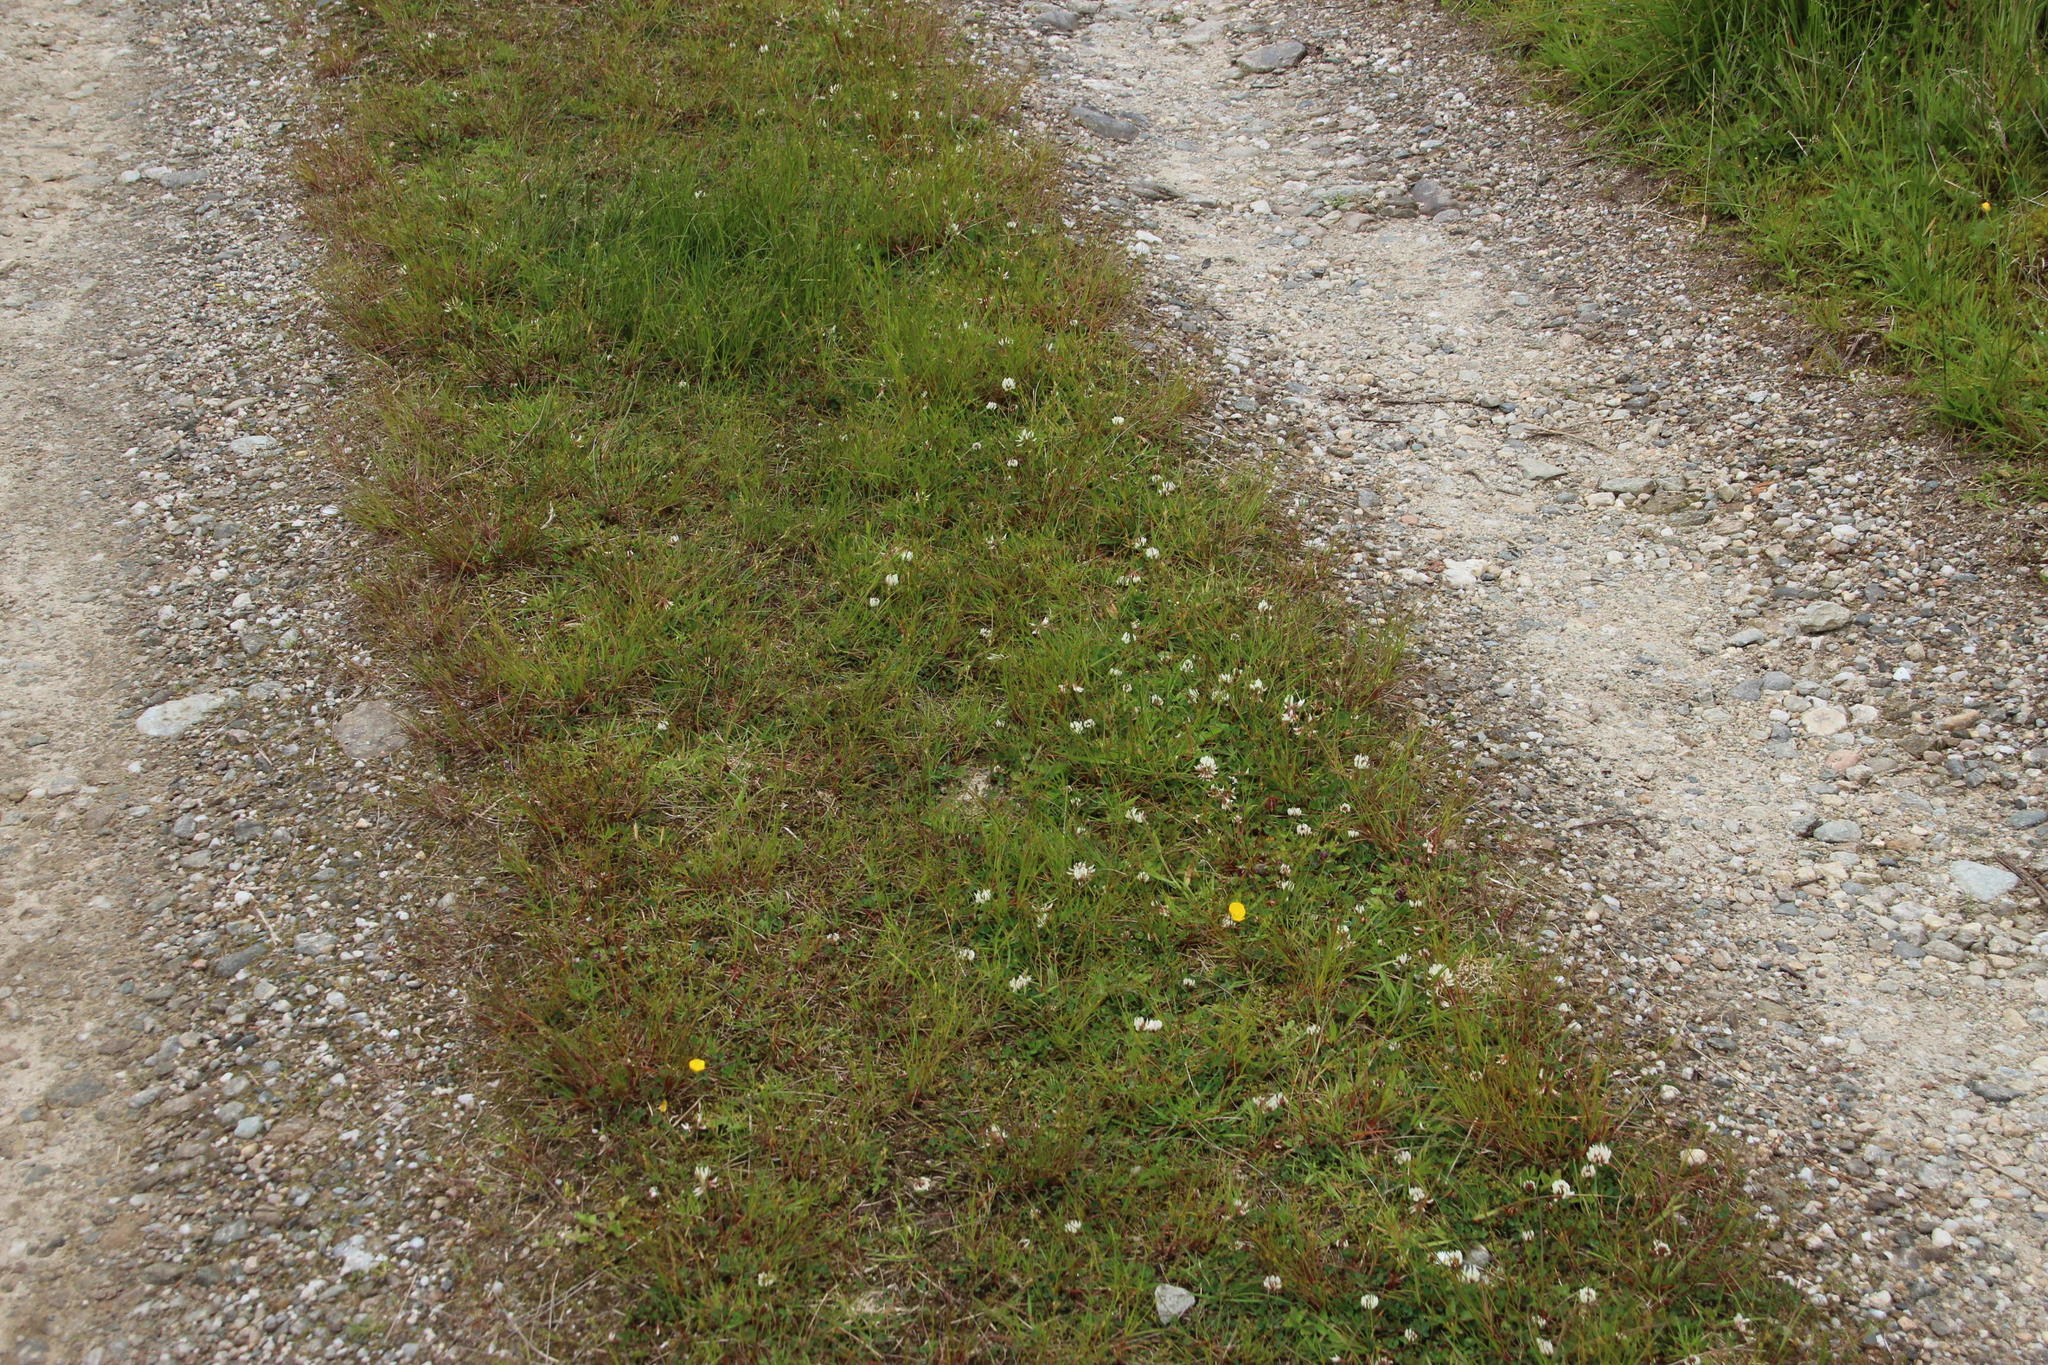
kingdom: Plantae
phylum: Tracheophyta
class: Magnoliopsida
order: Fabales
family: Fabaceae
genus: Trifolium
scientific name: Trifolium repens
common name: White clover
